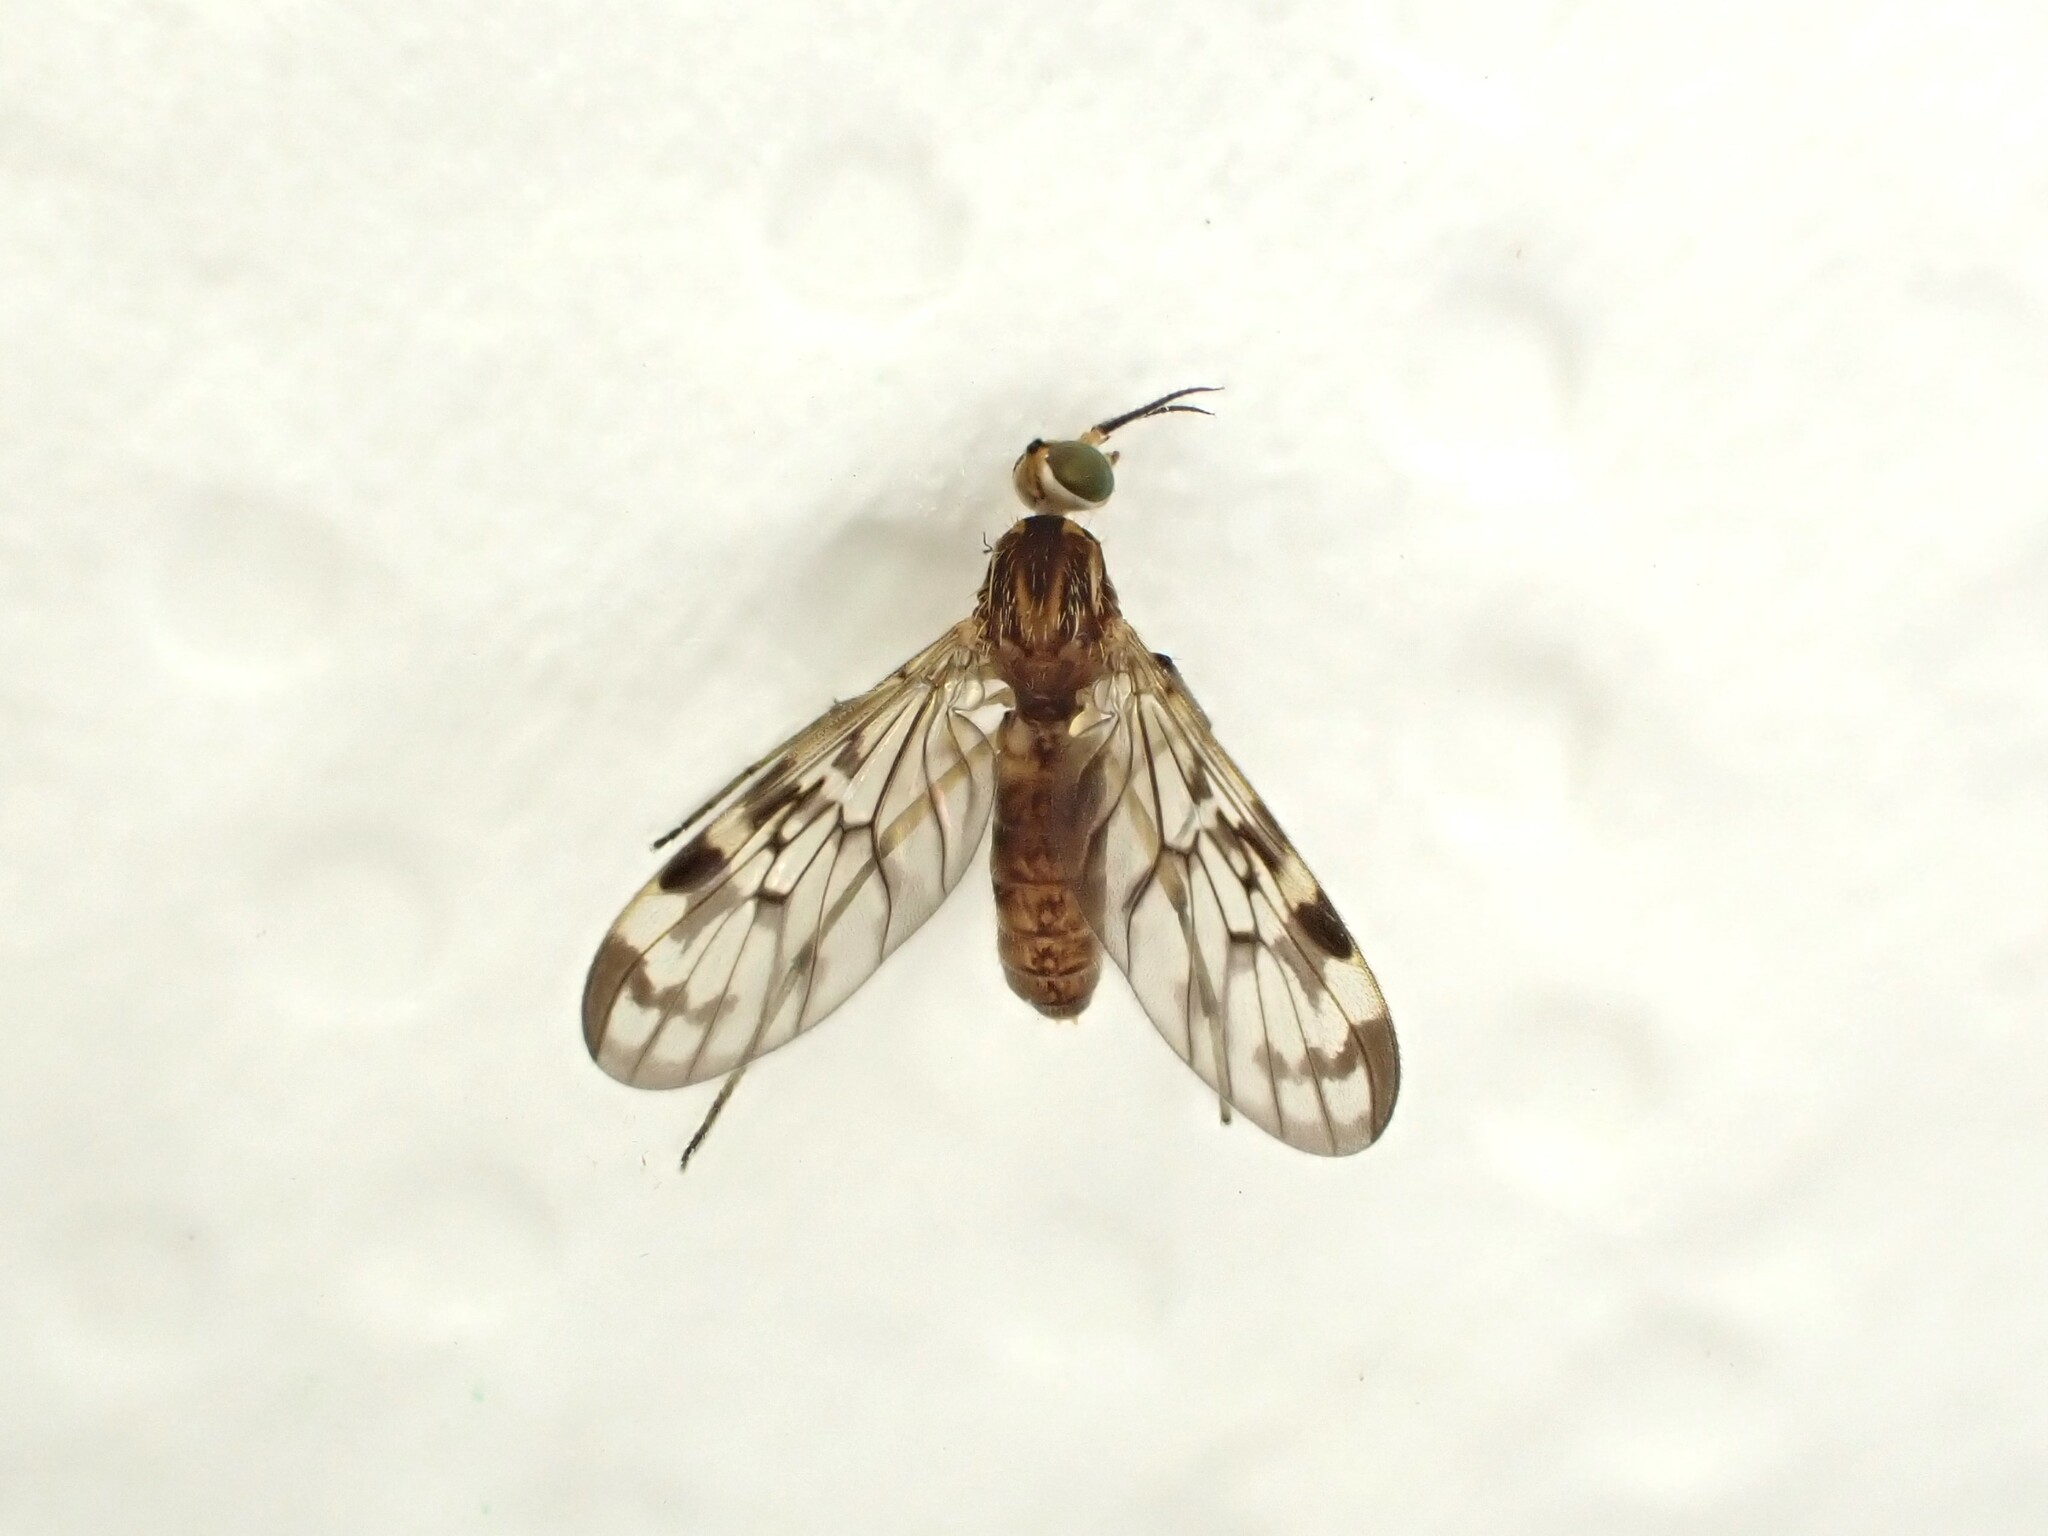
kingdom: Animalia
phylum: Arthropoda
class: Insecta
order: Diptera
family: Anisopodidae
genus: Sylvicola
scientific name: Sylvicola dubius
